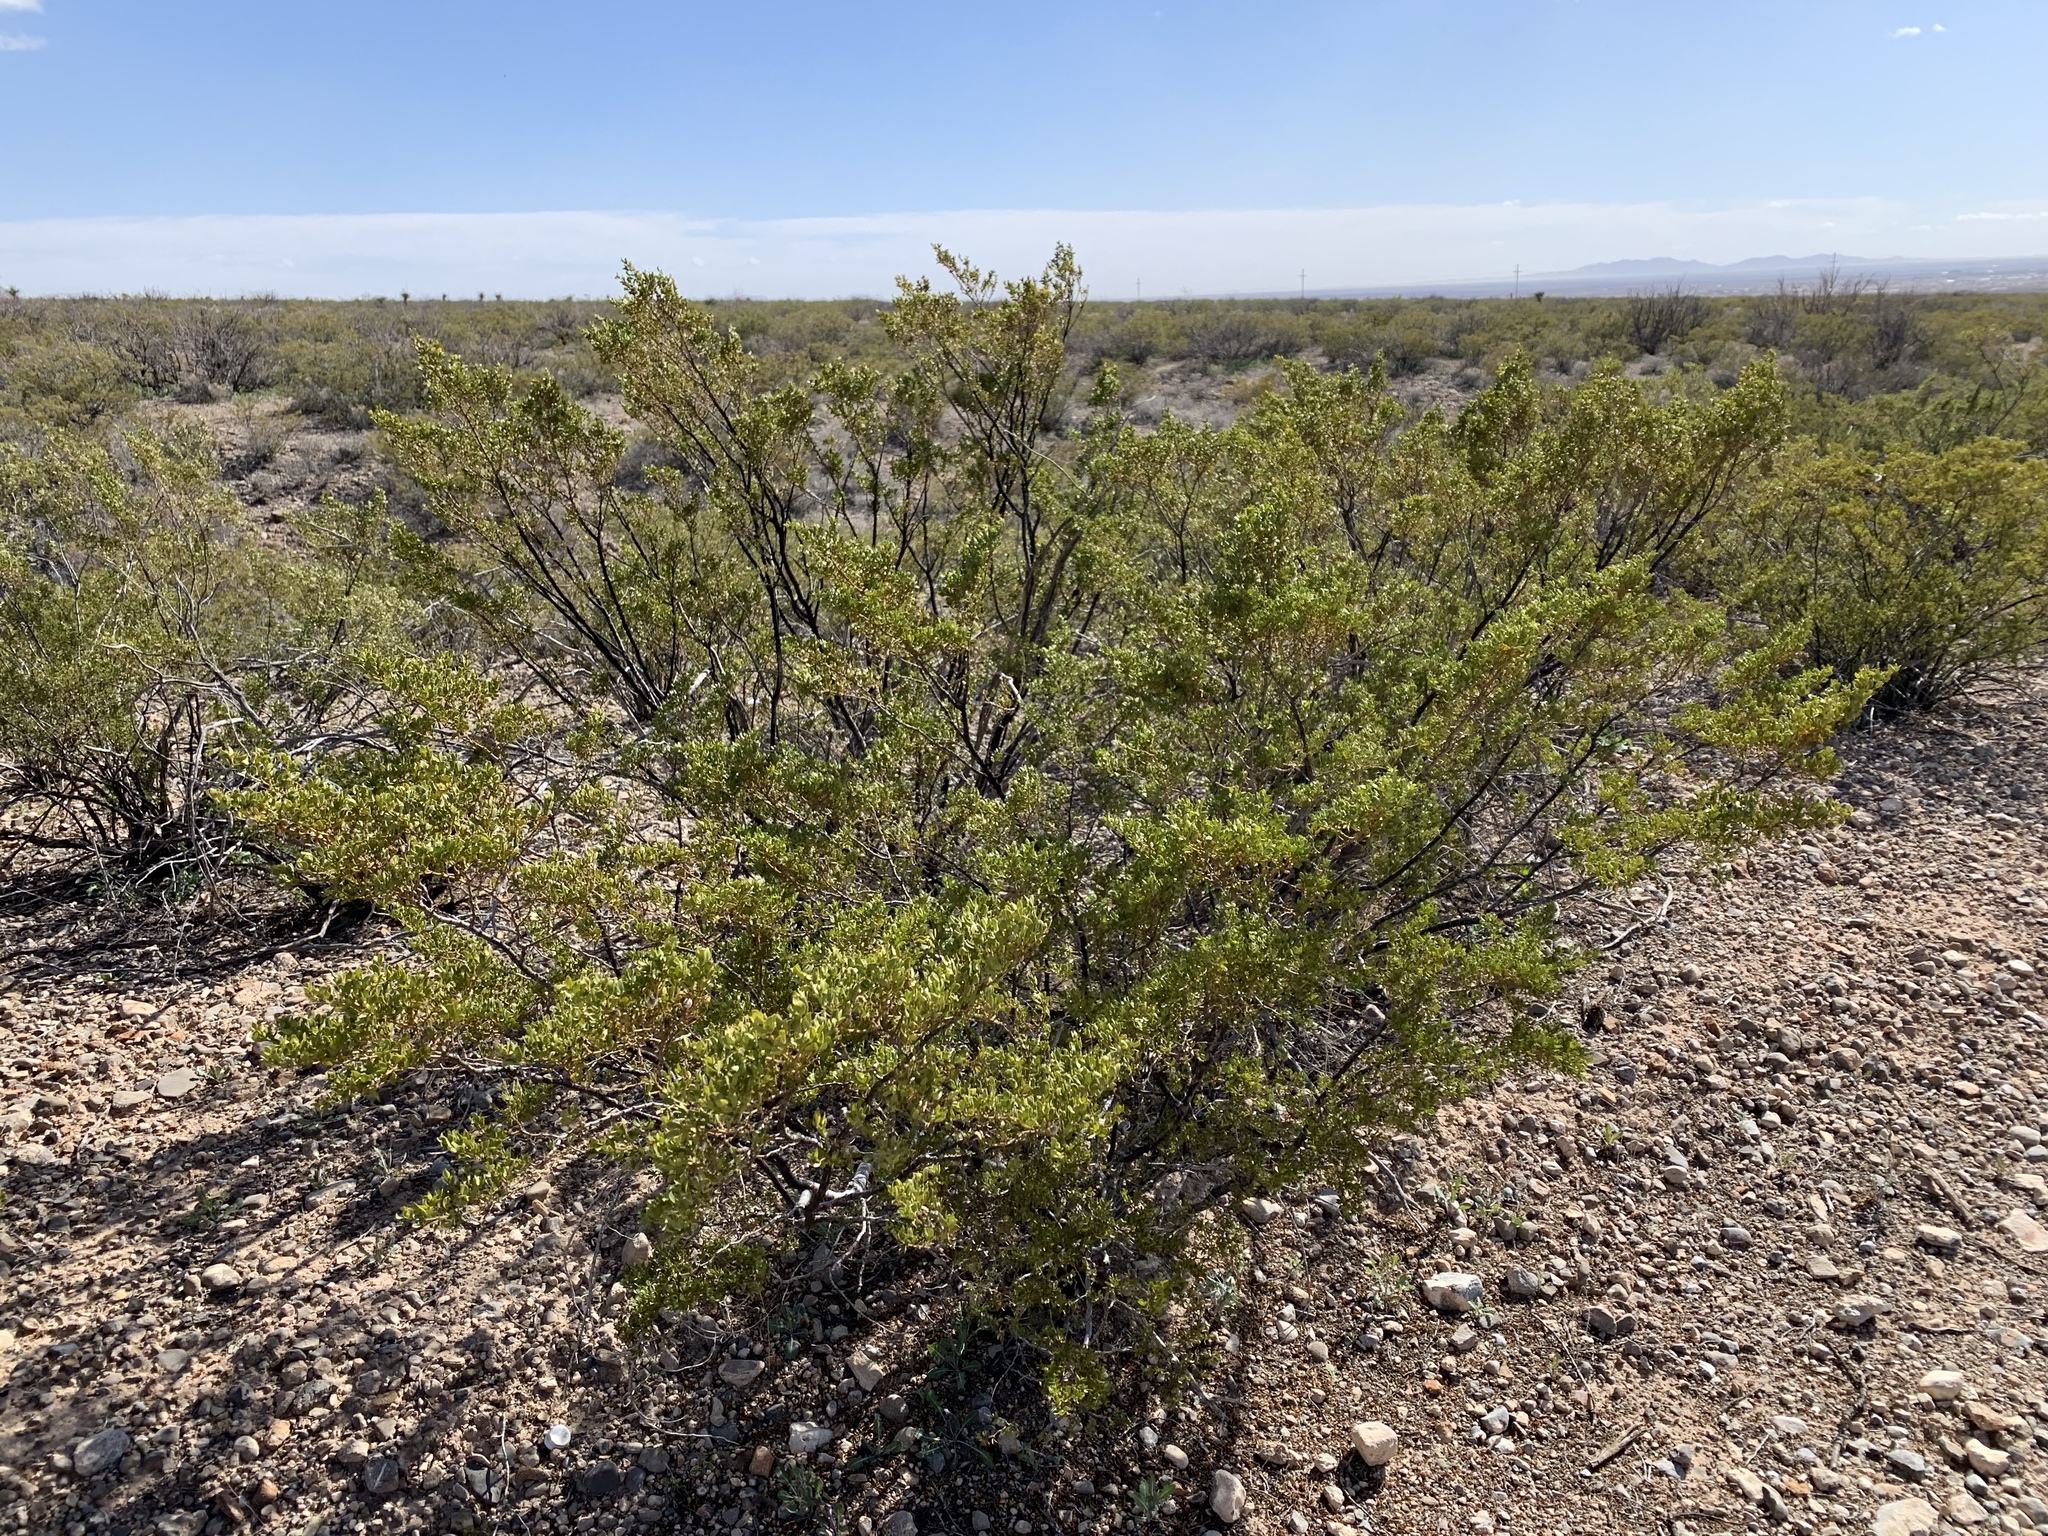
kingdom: Plantae
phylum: Tracheophyta
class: Magnoliopsida
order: Zygophyllales
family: Zygophyllaceae
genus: Larrea
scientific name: Larrea tridentata
